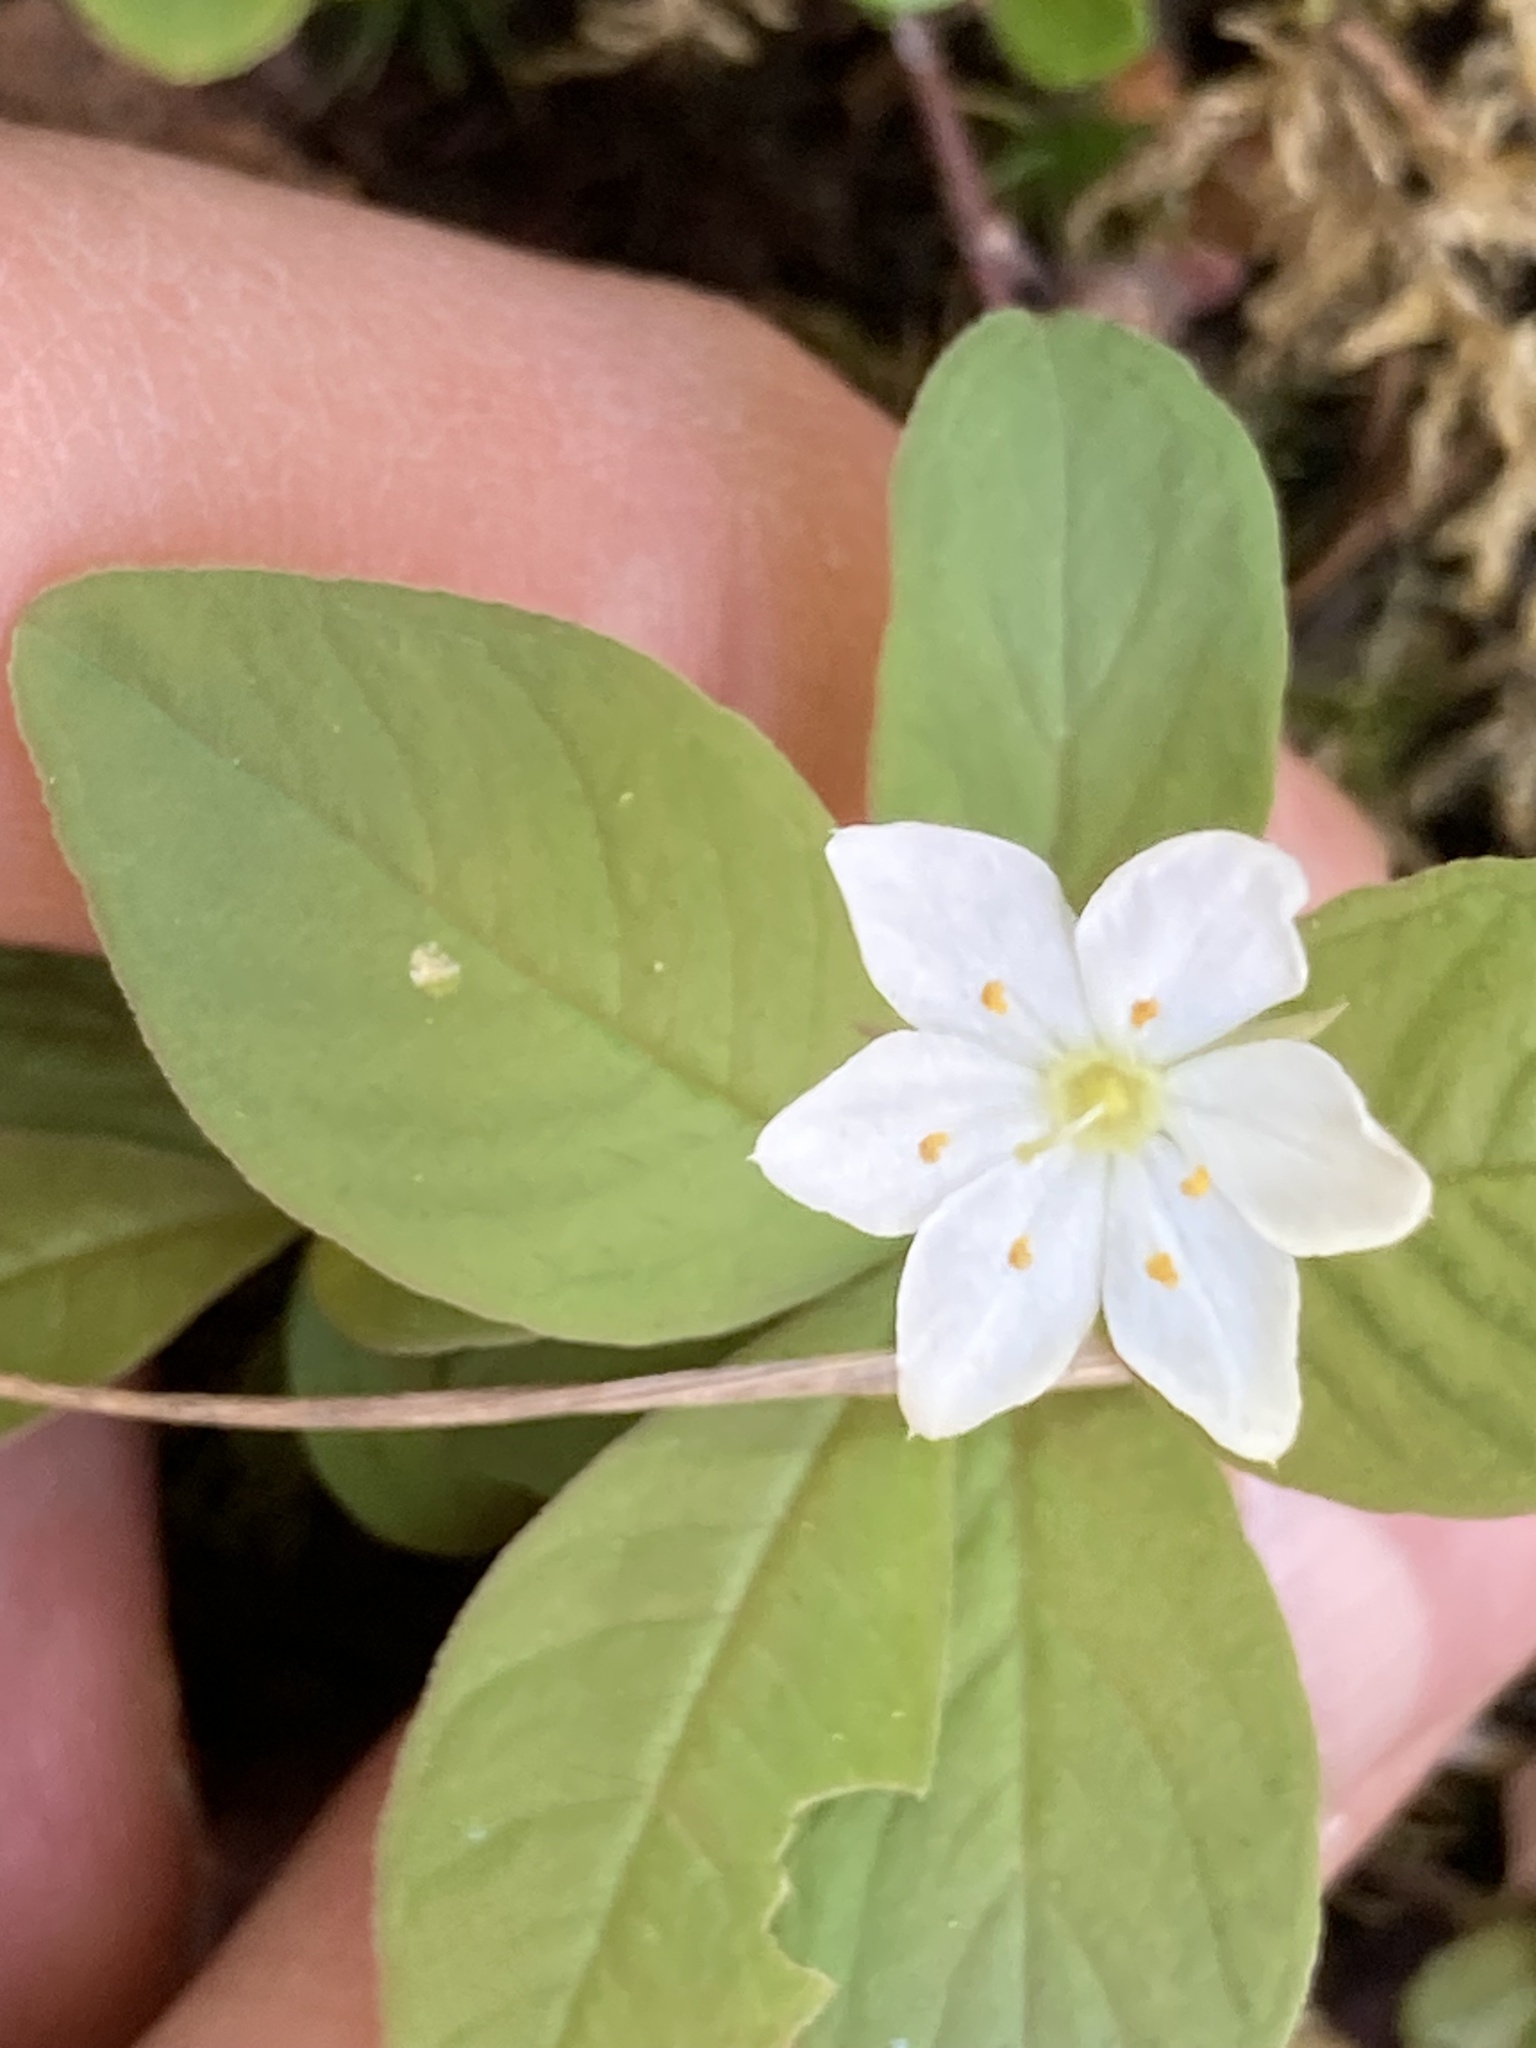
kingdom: Plantae
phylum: Tracheophyta
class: Magnoliopsida
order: Ericales
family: Primulaceae
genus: Lysimachia
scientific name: Lysimachia europaea
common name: Arctic starflower
